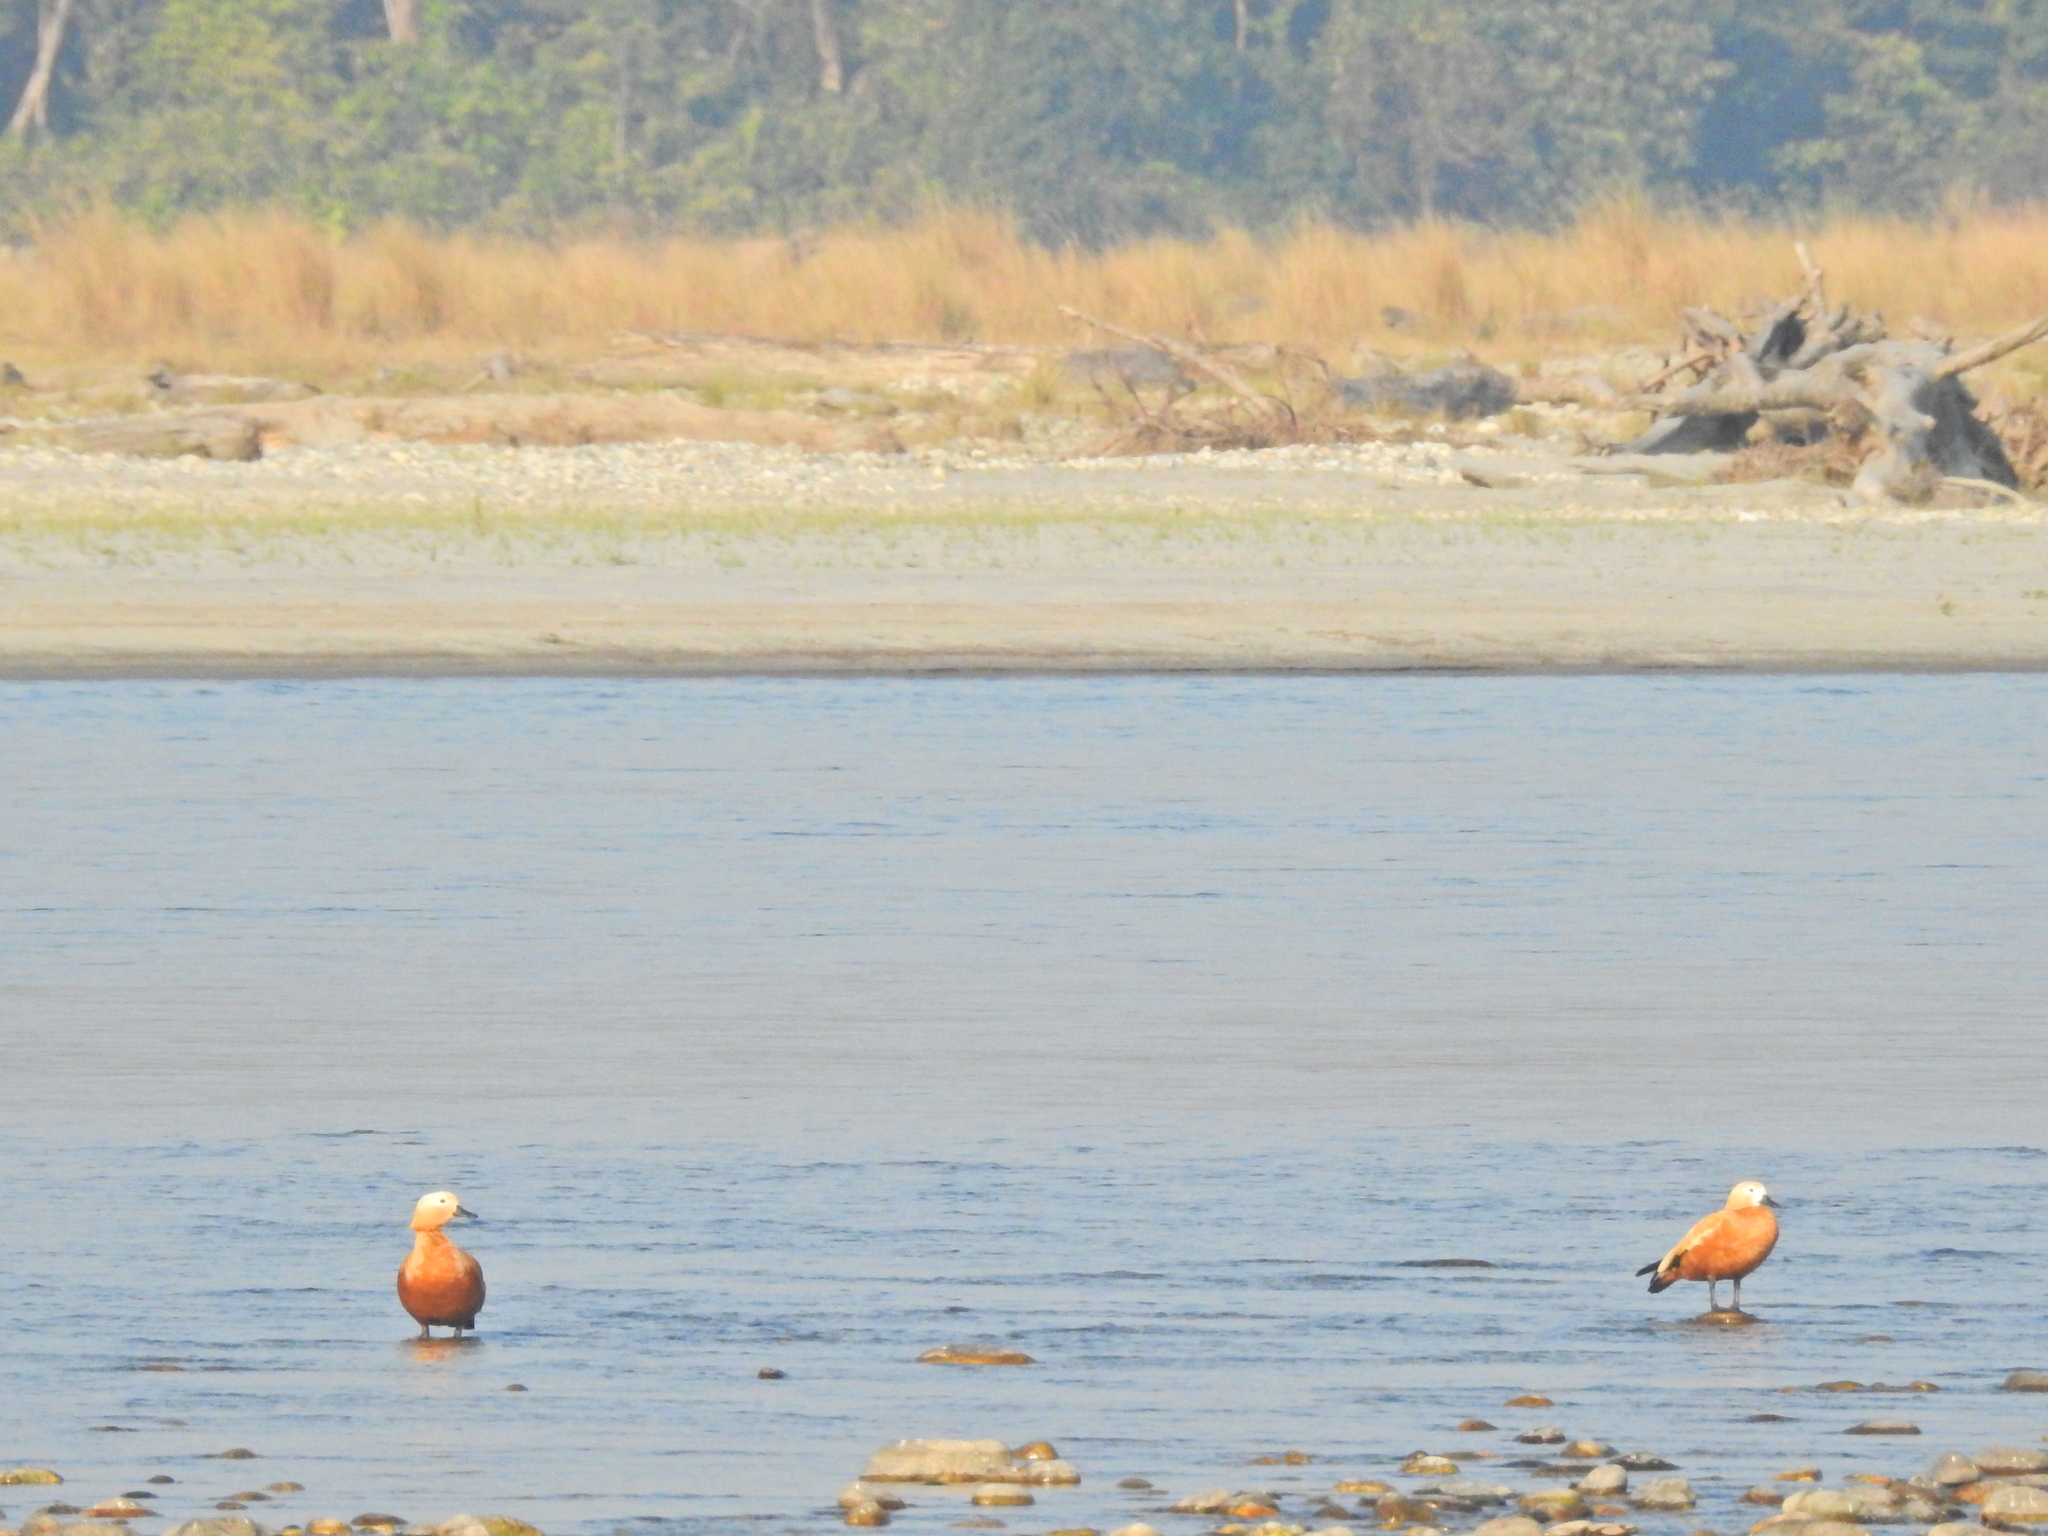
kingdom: Animalia
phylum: Chordata
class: Aves
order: Anseriformes
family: Anatidae
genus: Tadorna
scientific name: Tadorna ferruginea
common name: Ruddy shelduck
